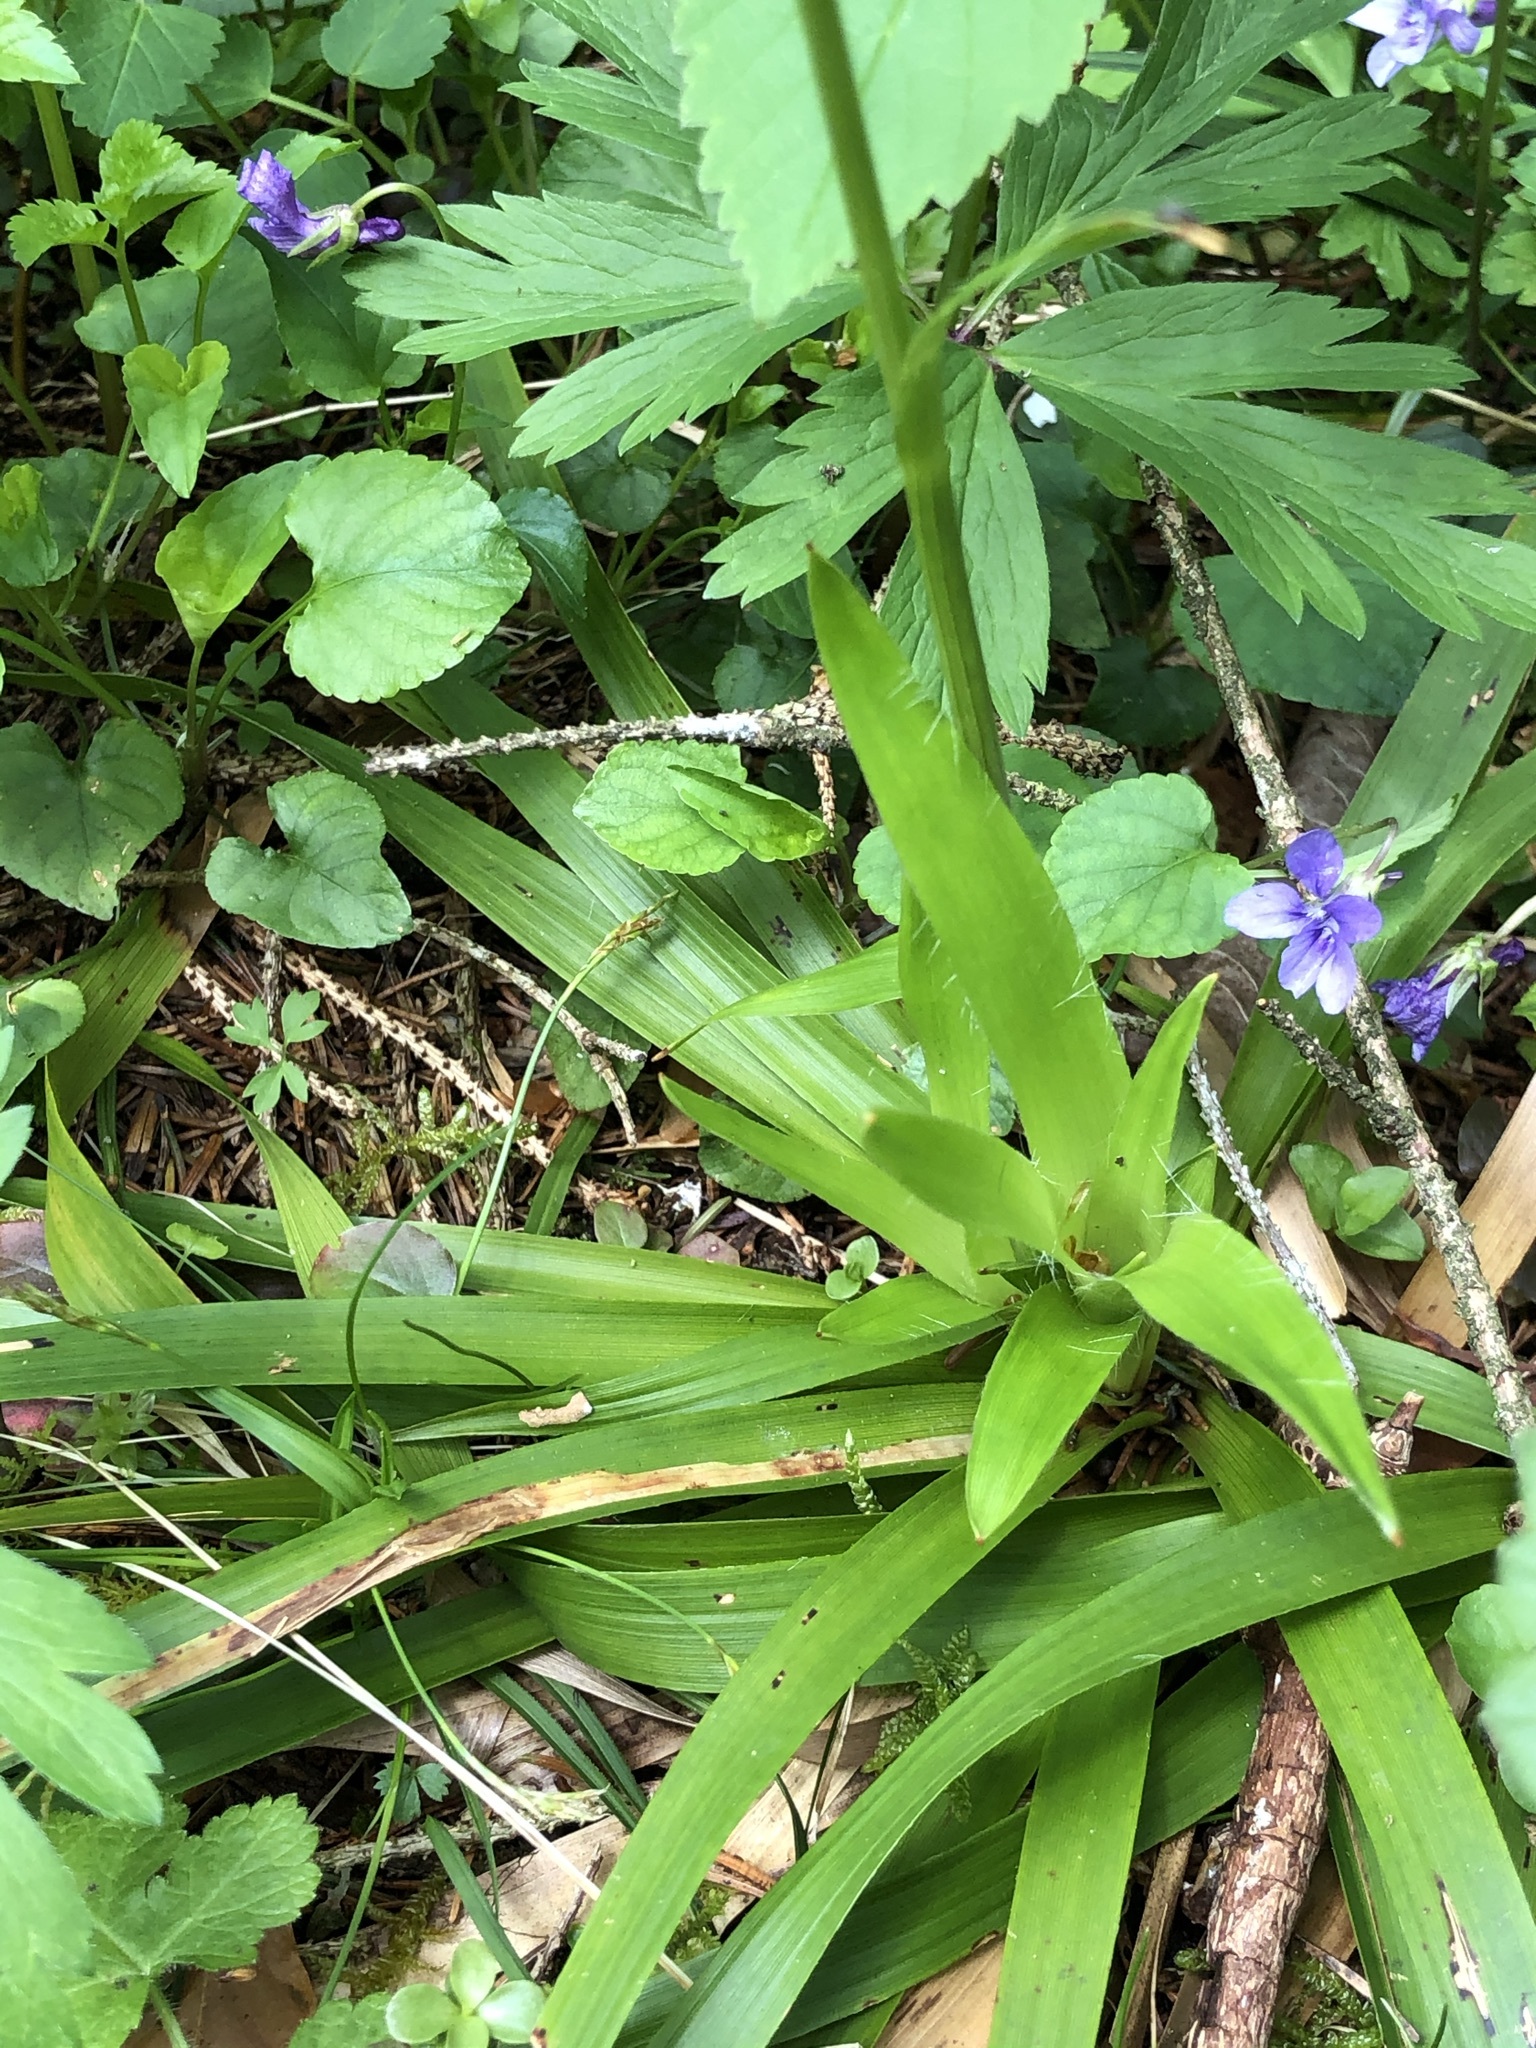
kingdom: Plantae
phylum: Tracheophyta
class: Liliopsida
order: Poales
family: Juncaceae
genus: Luzula
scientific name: Luzula sylvatica
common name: Great wood-rush
